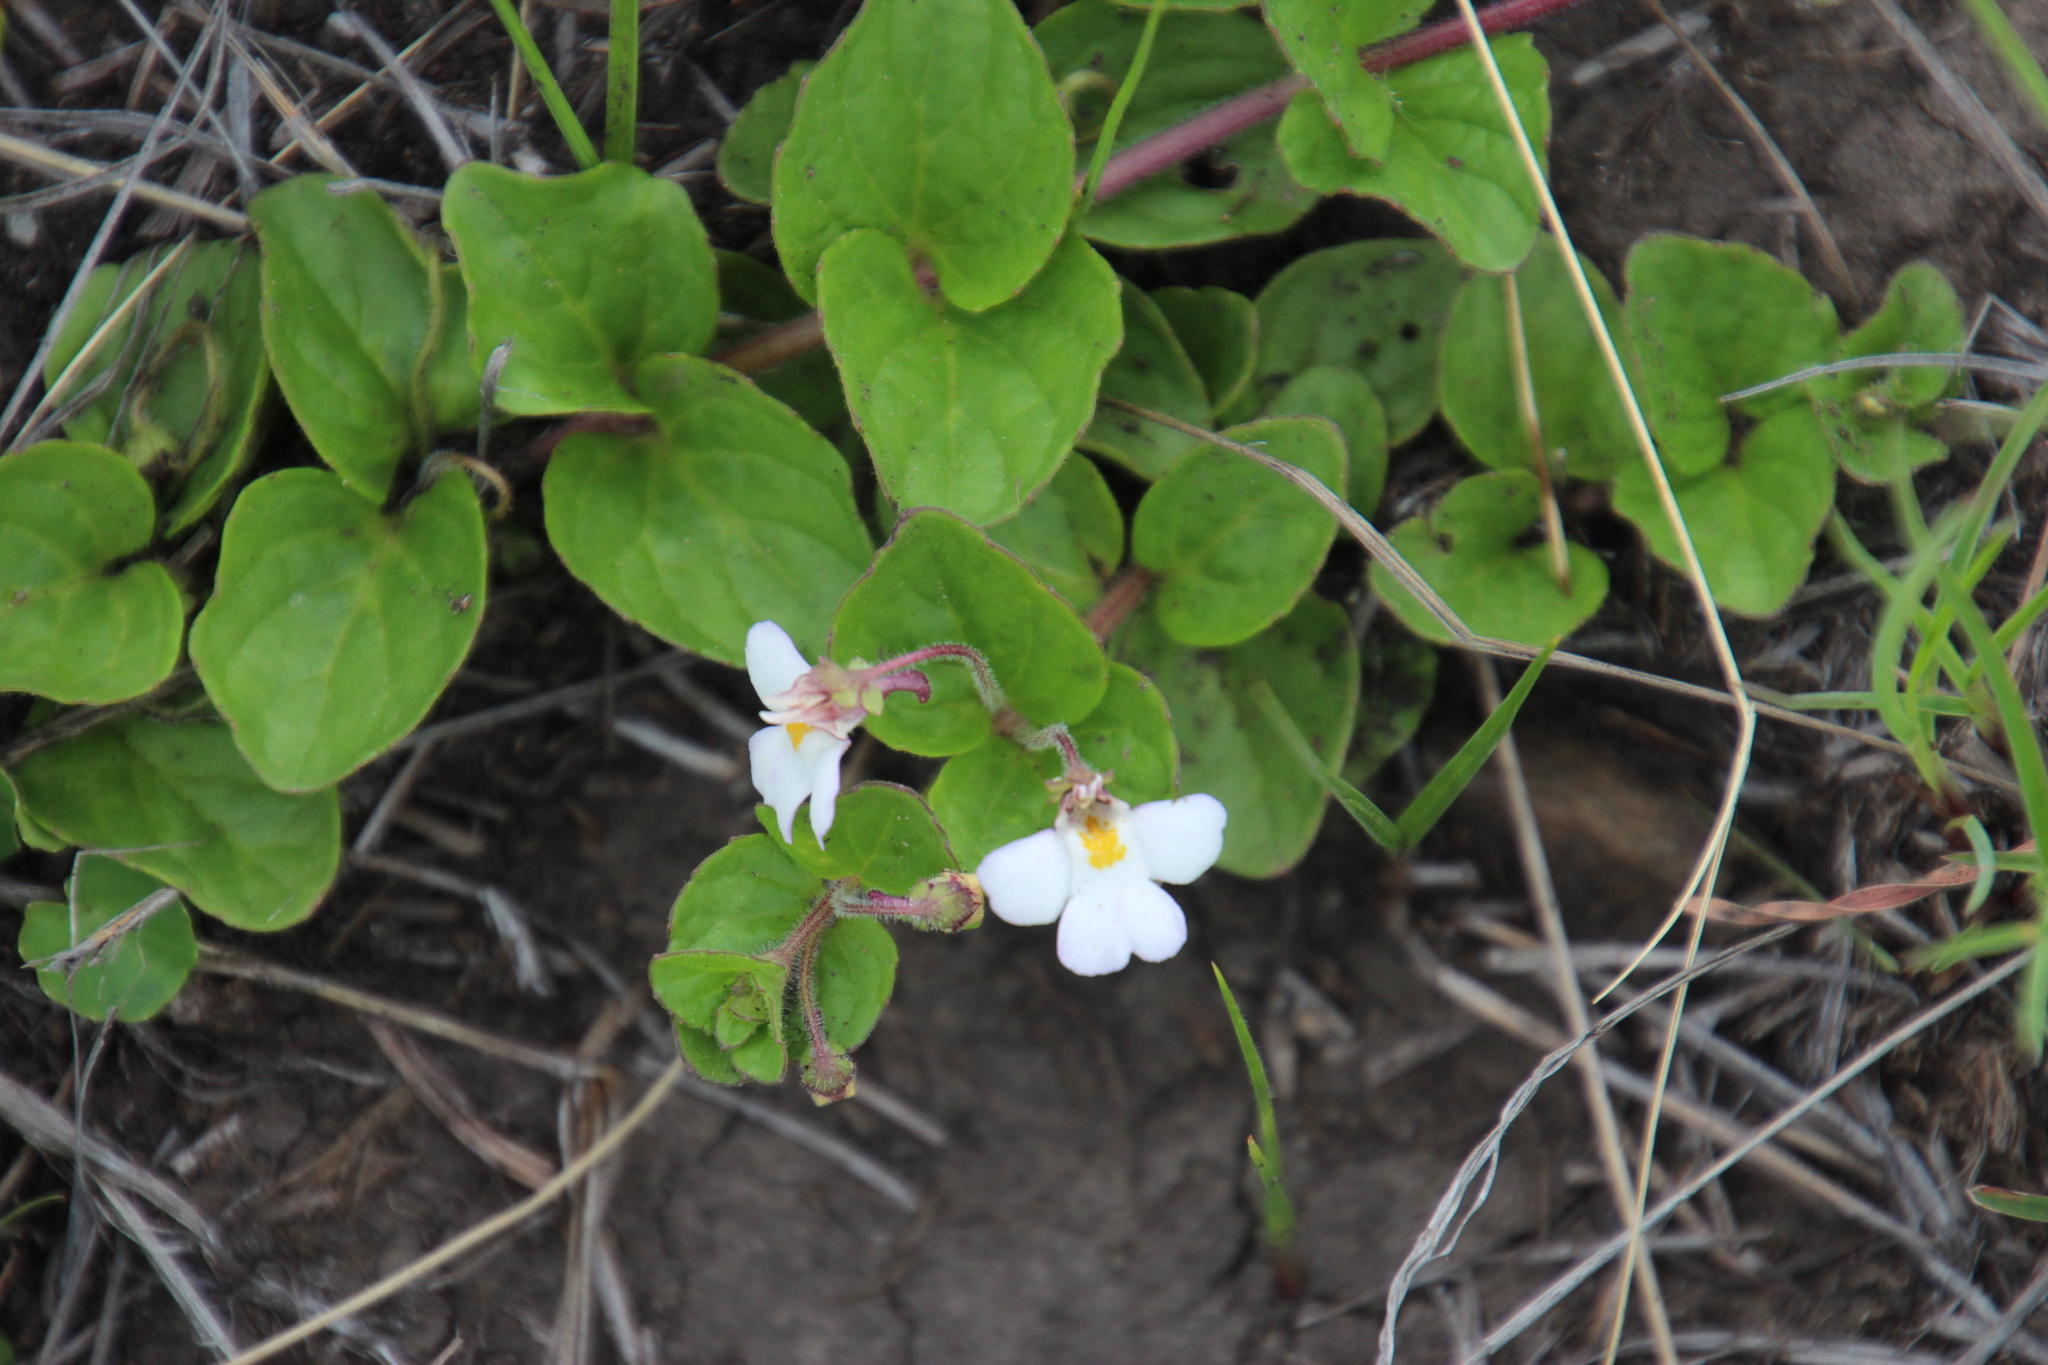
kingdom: Plantae
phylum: Tracheophyta
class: Magnoliopsida
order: Lamiales
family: Scrophulariaceae
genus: Diclis
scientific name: Diclis rotundifolia
